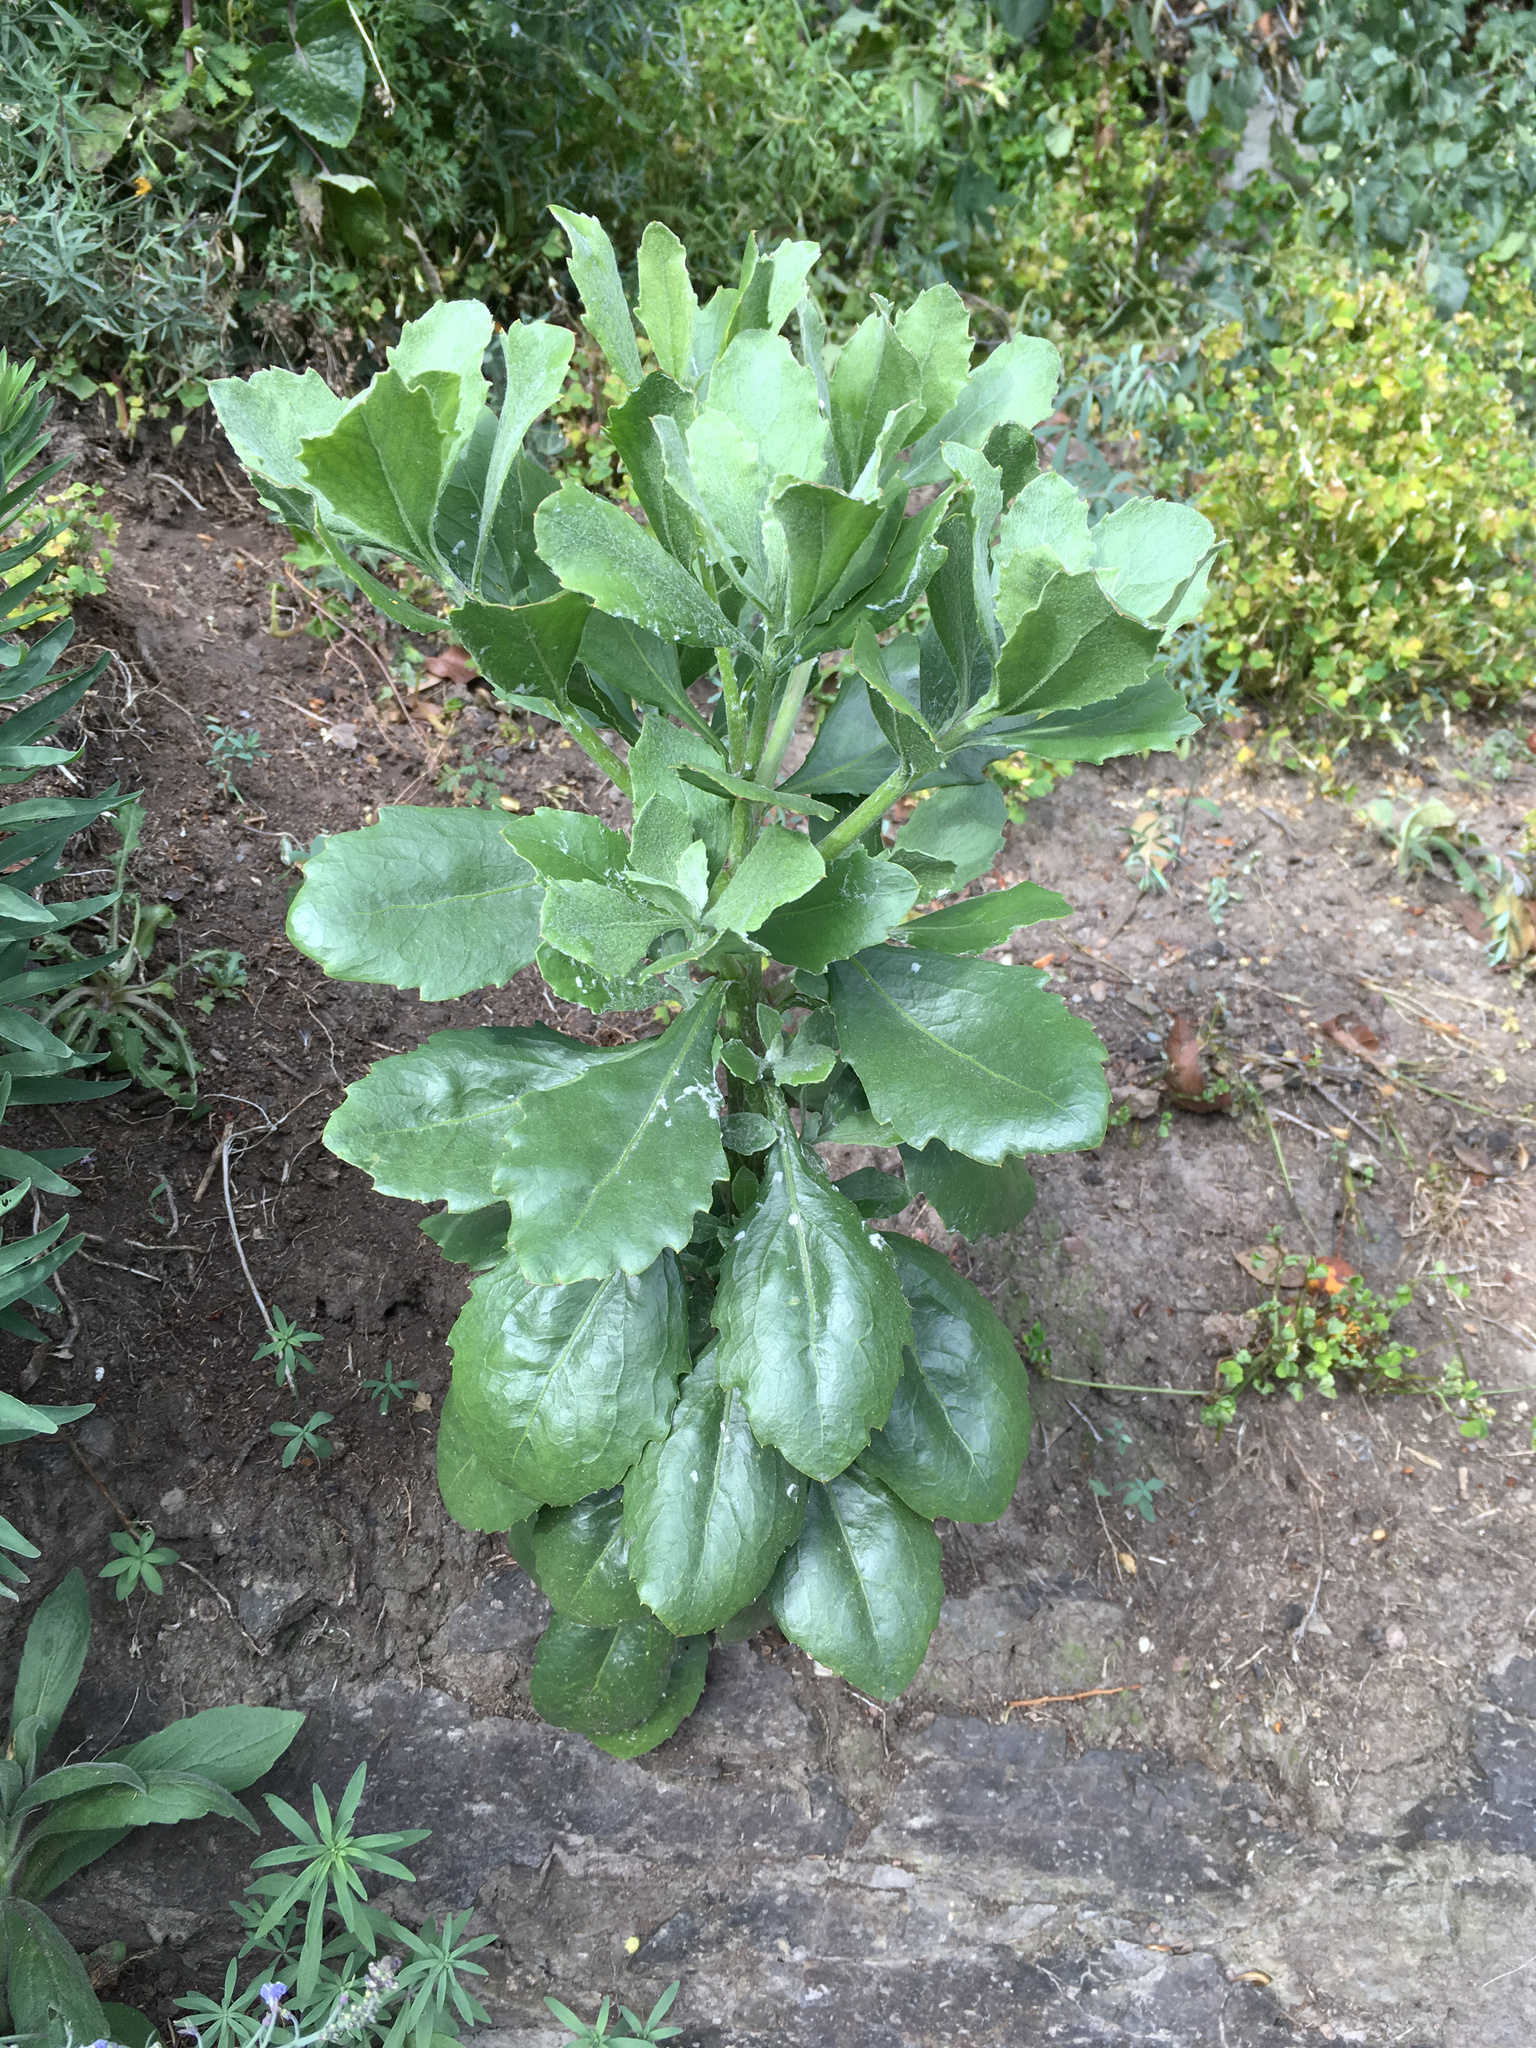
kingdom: Plantae
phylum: Tracheophyta
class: Magnoliopsida
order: Asterales
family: Asteraceae
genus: Osteospermum
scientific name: Osteospermum moniliferum
